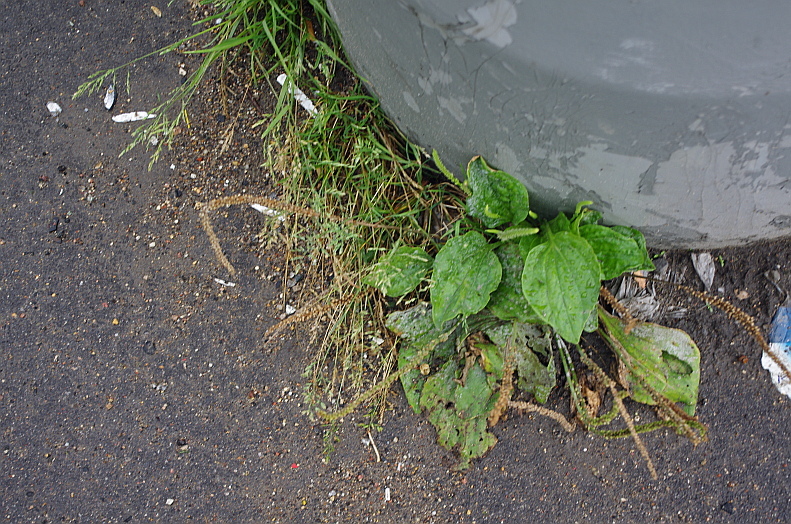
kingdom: Plantae
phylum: Tracheophyta
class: Magnoliopsida
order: Lamiales
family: Plantaginaceae
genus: Plantago
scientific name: Plantago major
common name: Common plantain
